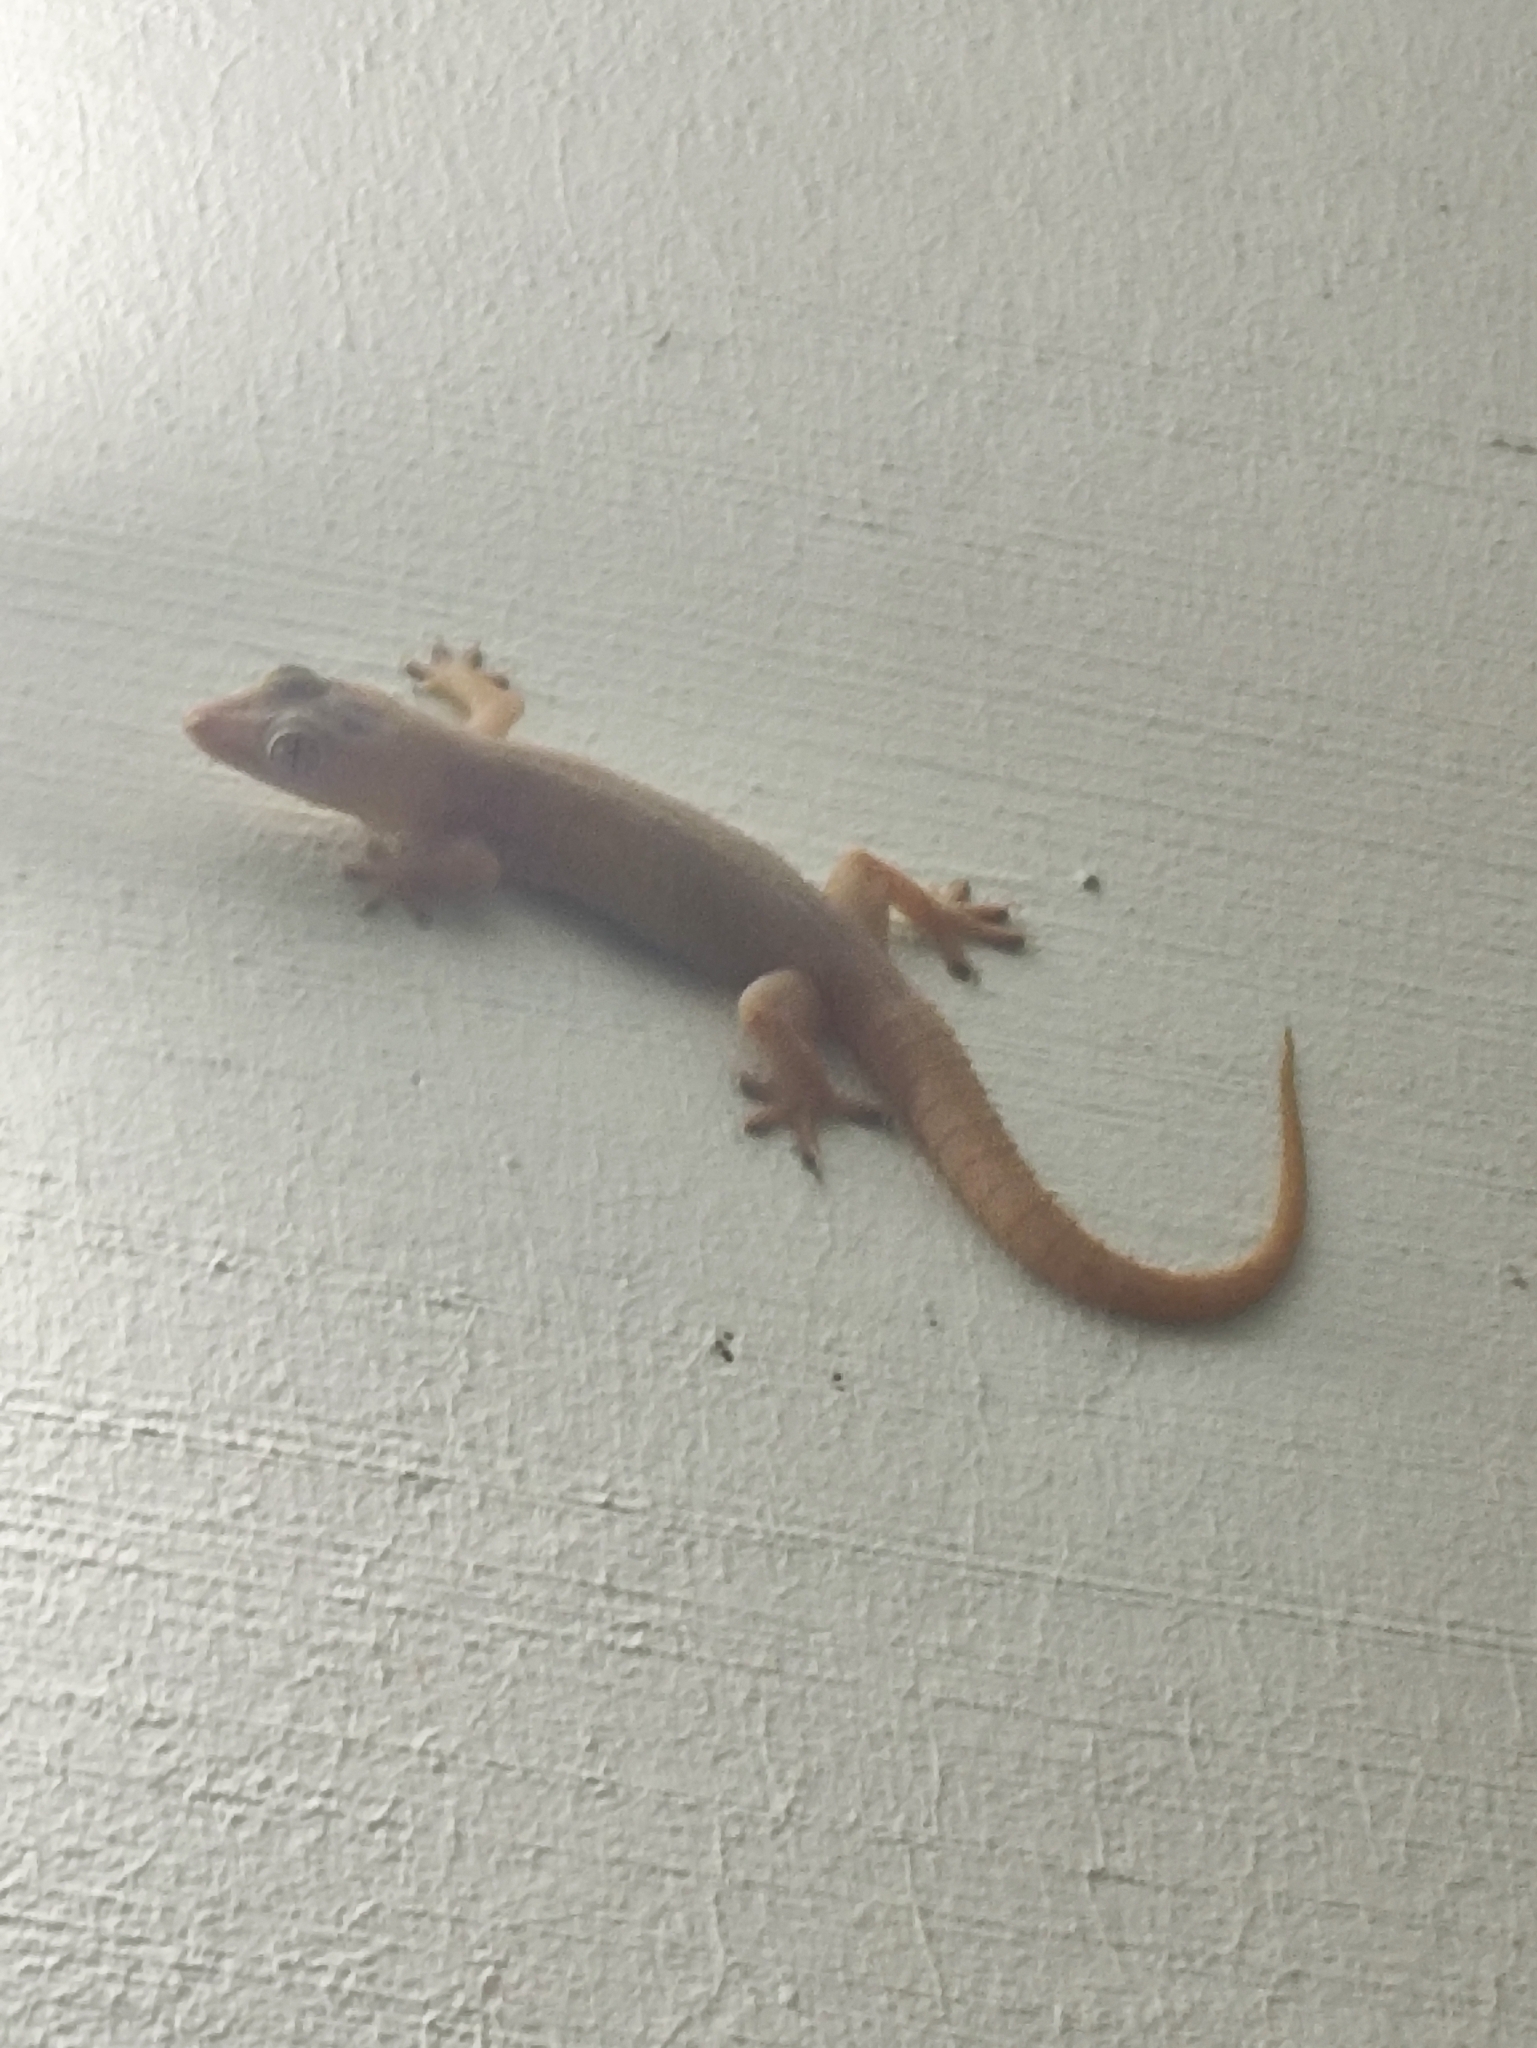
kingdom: Animalia
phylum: Chordata
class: Squamata
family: Gekkonidae
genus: Hemidactylus
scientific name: Hemidactylus frenatus
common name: Common house gecko
